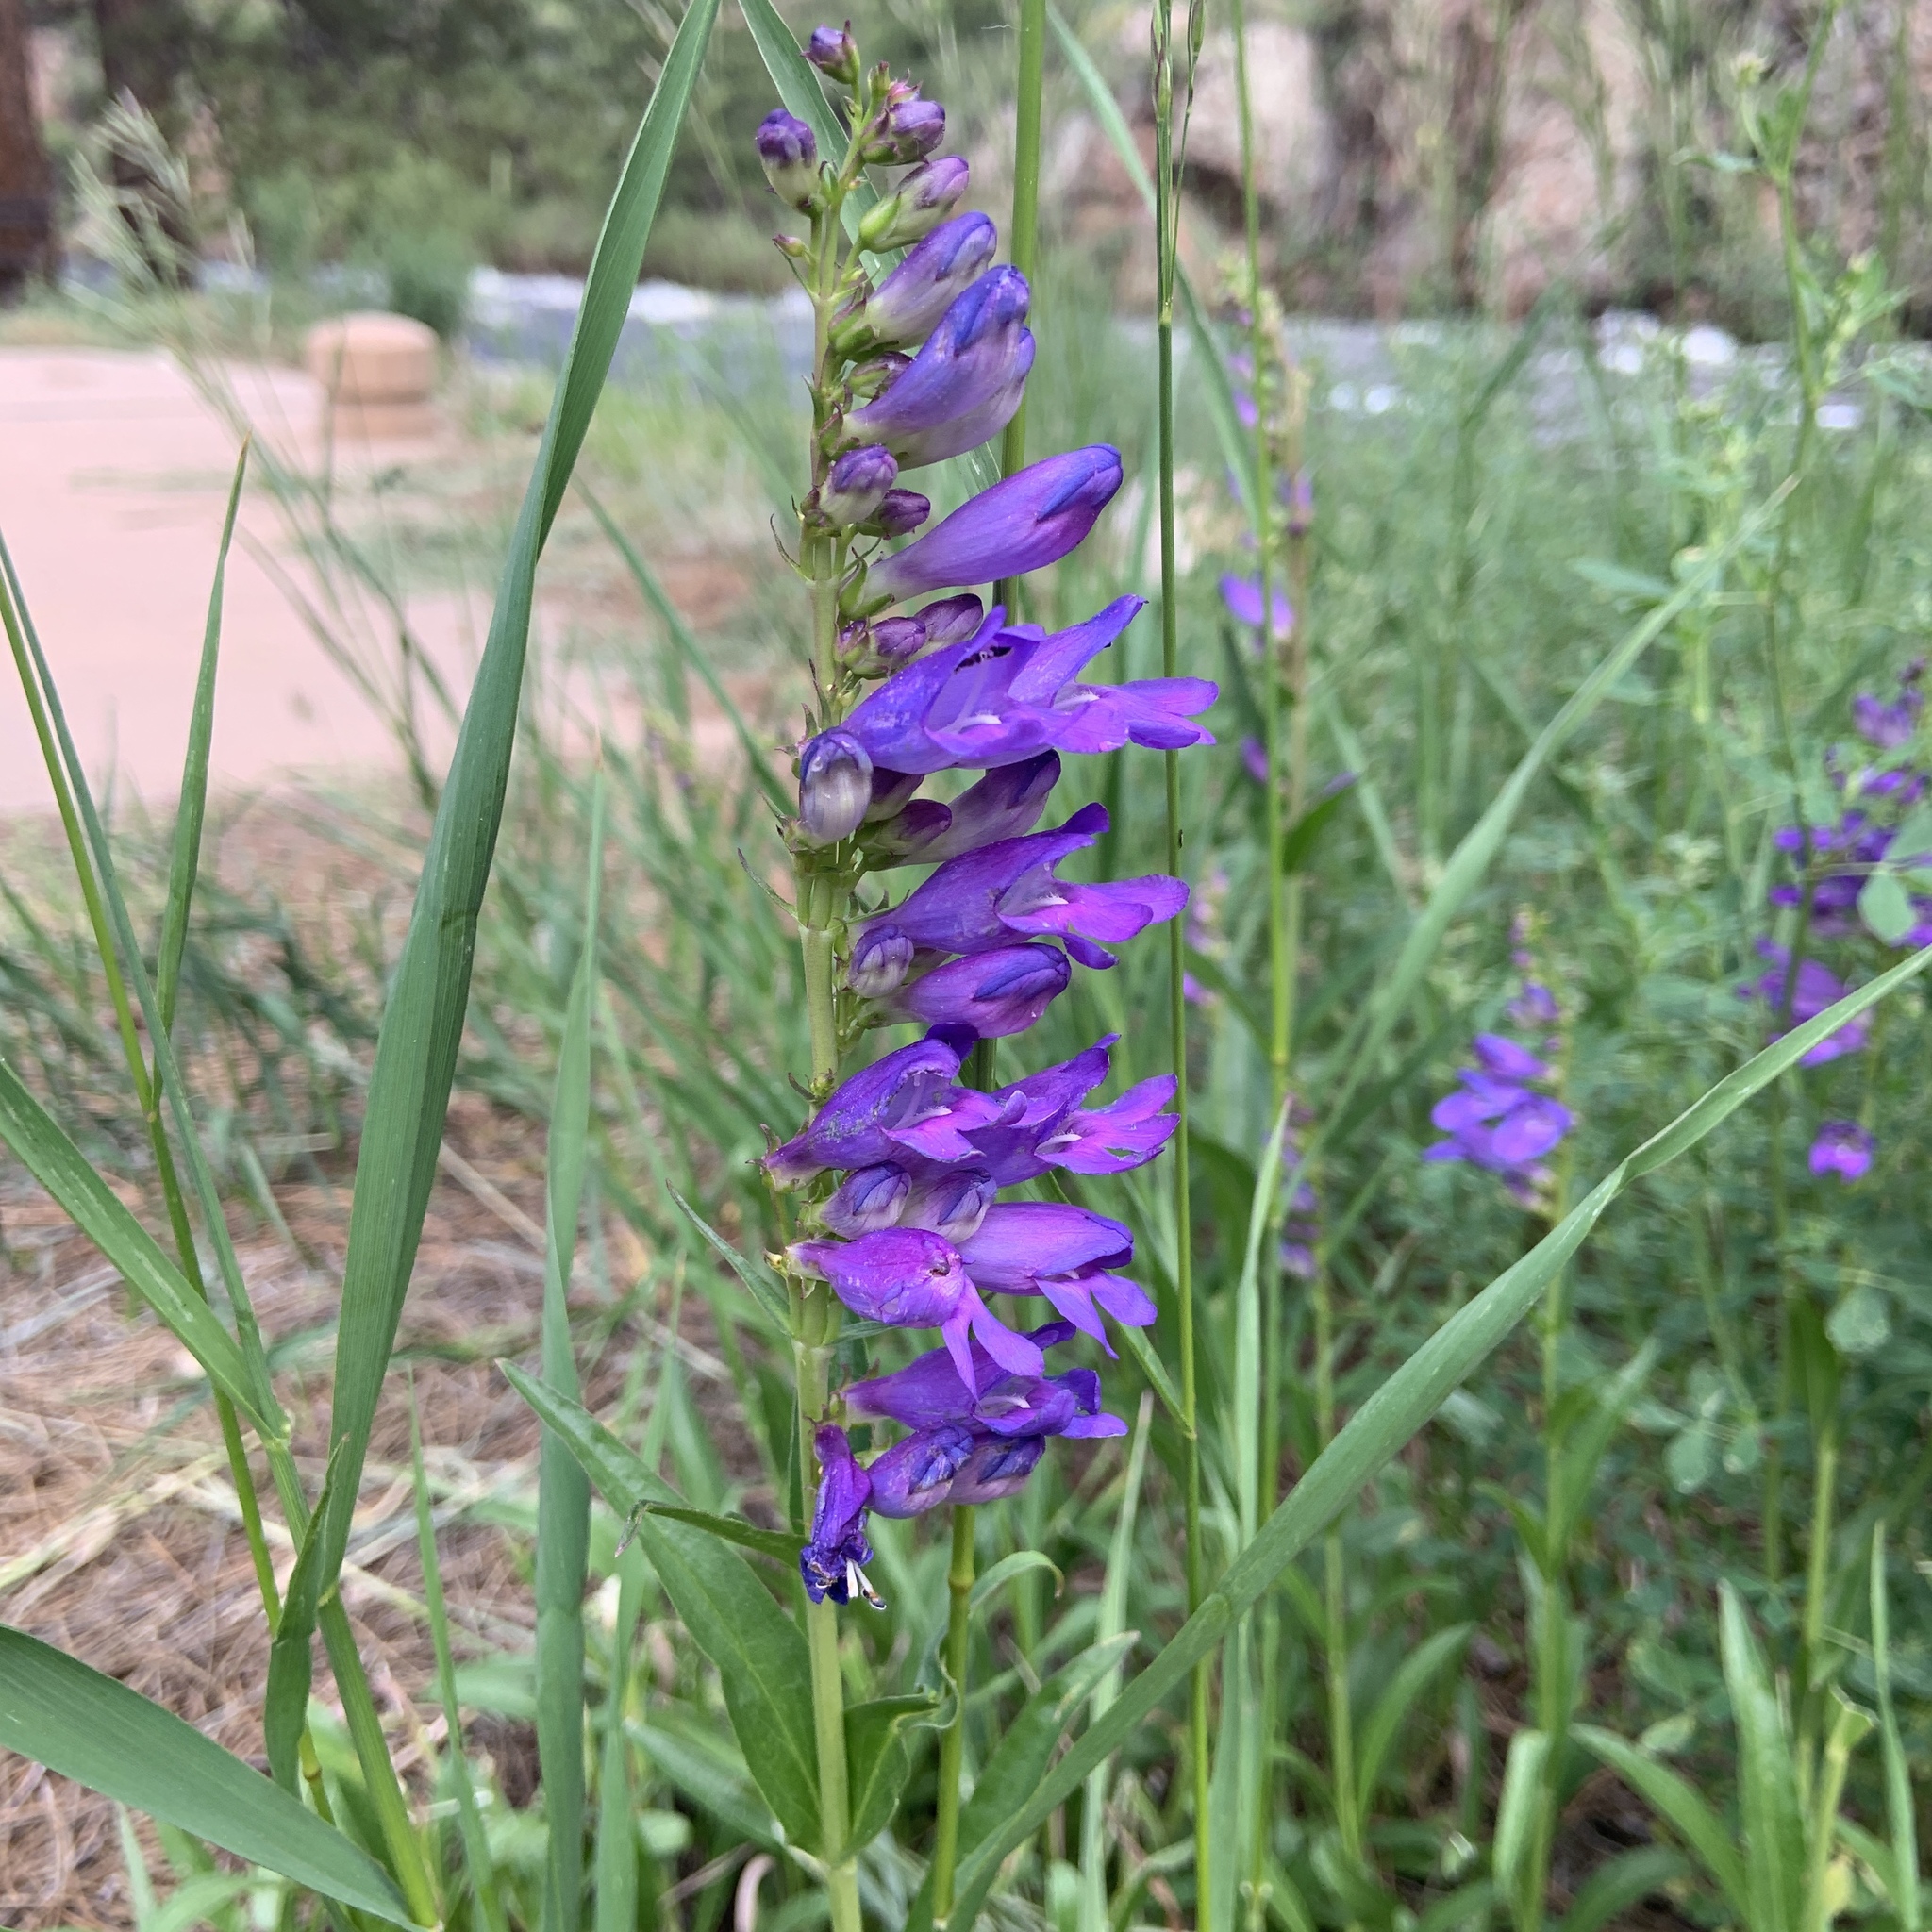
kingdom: Plantae
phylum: Tracheophyta
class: Magnoliopsida
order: Lamiales
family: Plantaginaceae
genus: Penstemon
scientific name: Penstemon strictus
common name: Rocky mountain penstemon
